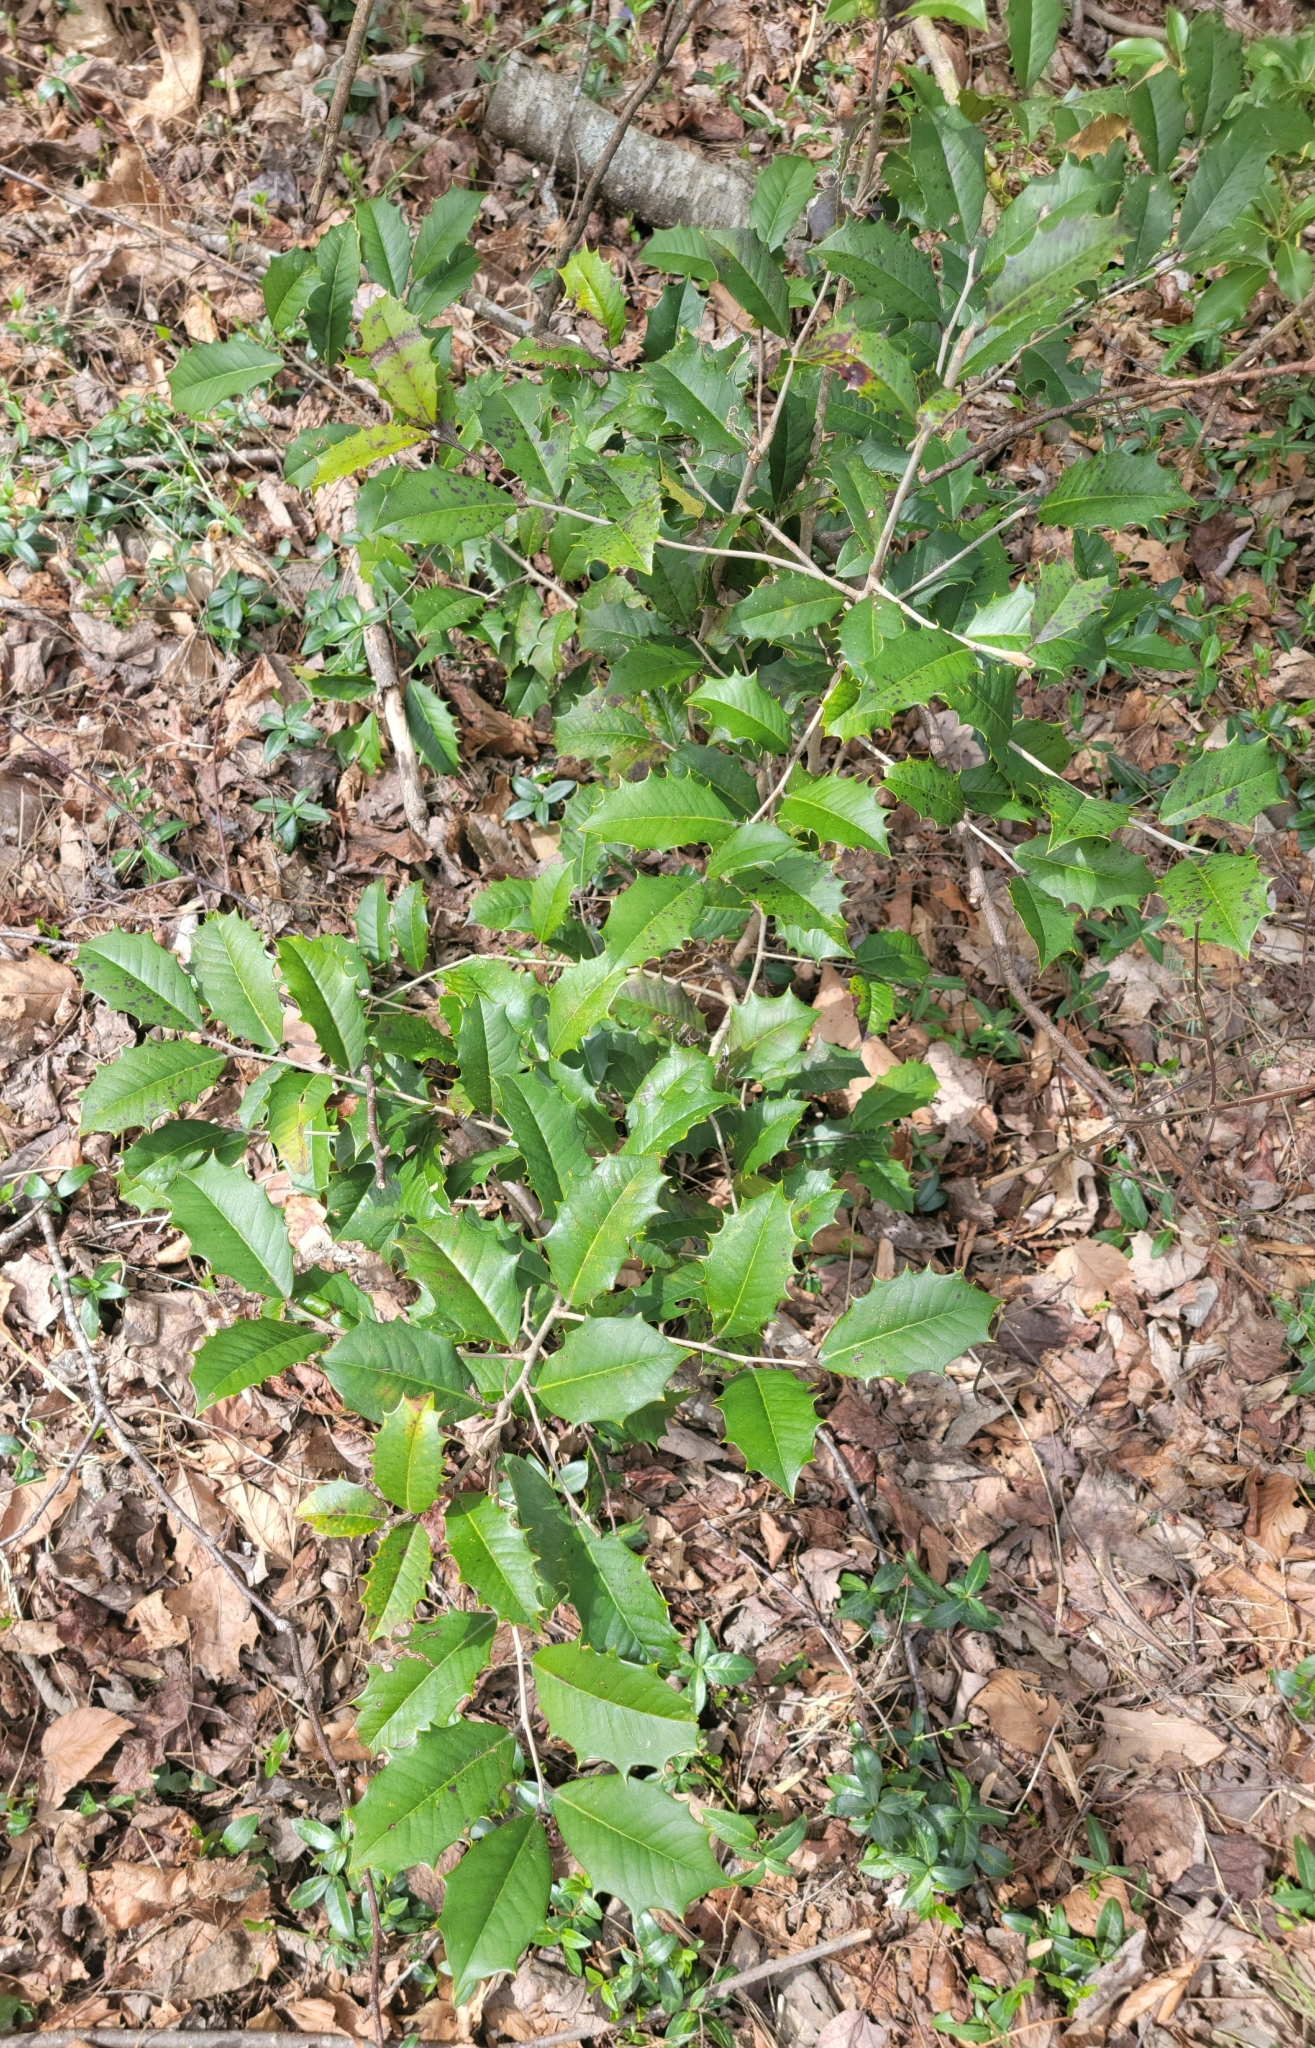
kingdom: Plantae
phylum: Tracheophyta
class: Magnoliopsida
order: Aquifoliales
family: Aquifoliaceae
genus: Ilex
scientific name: Ilex opaca
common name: American holly
